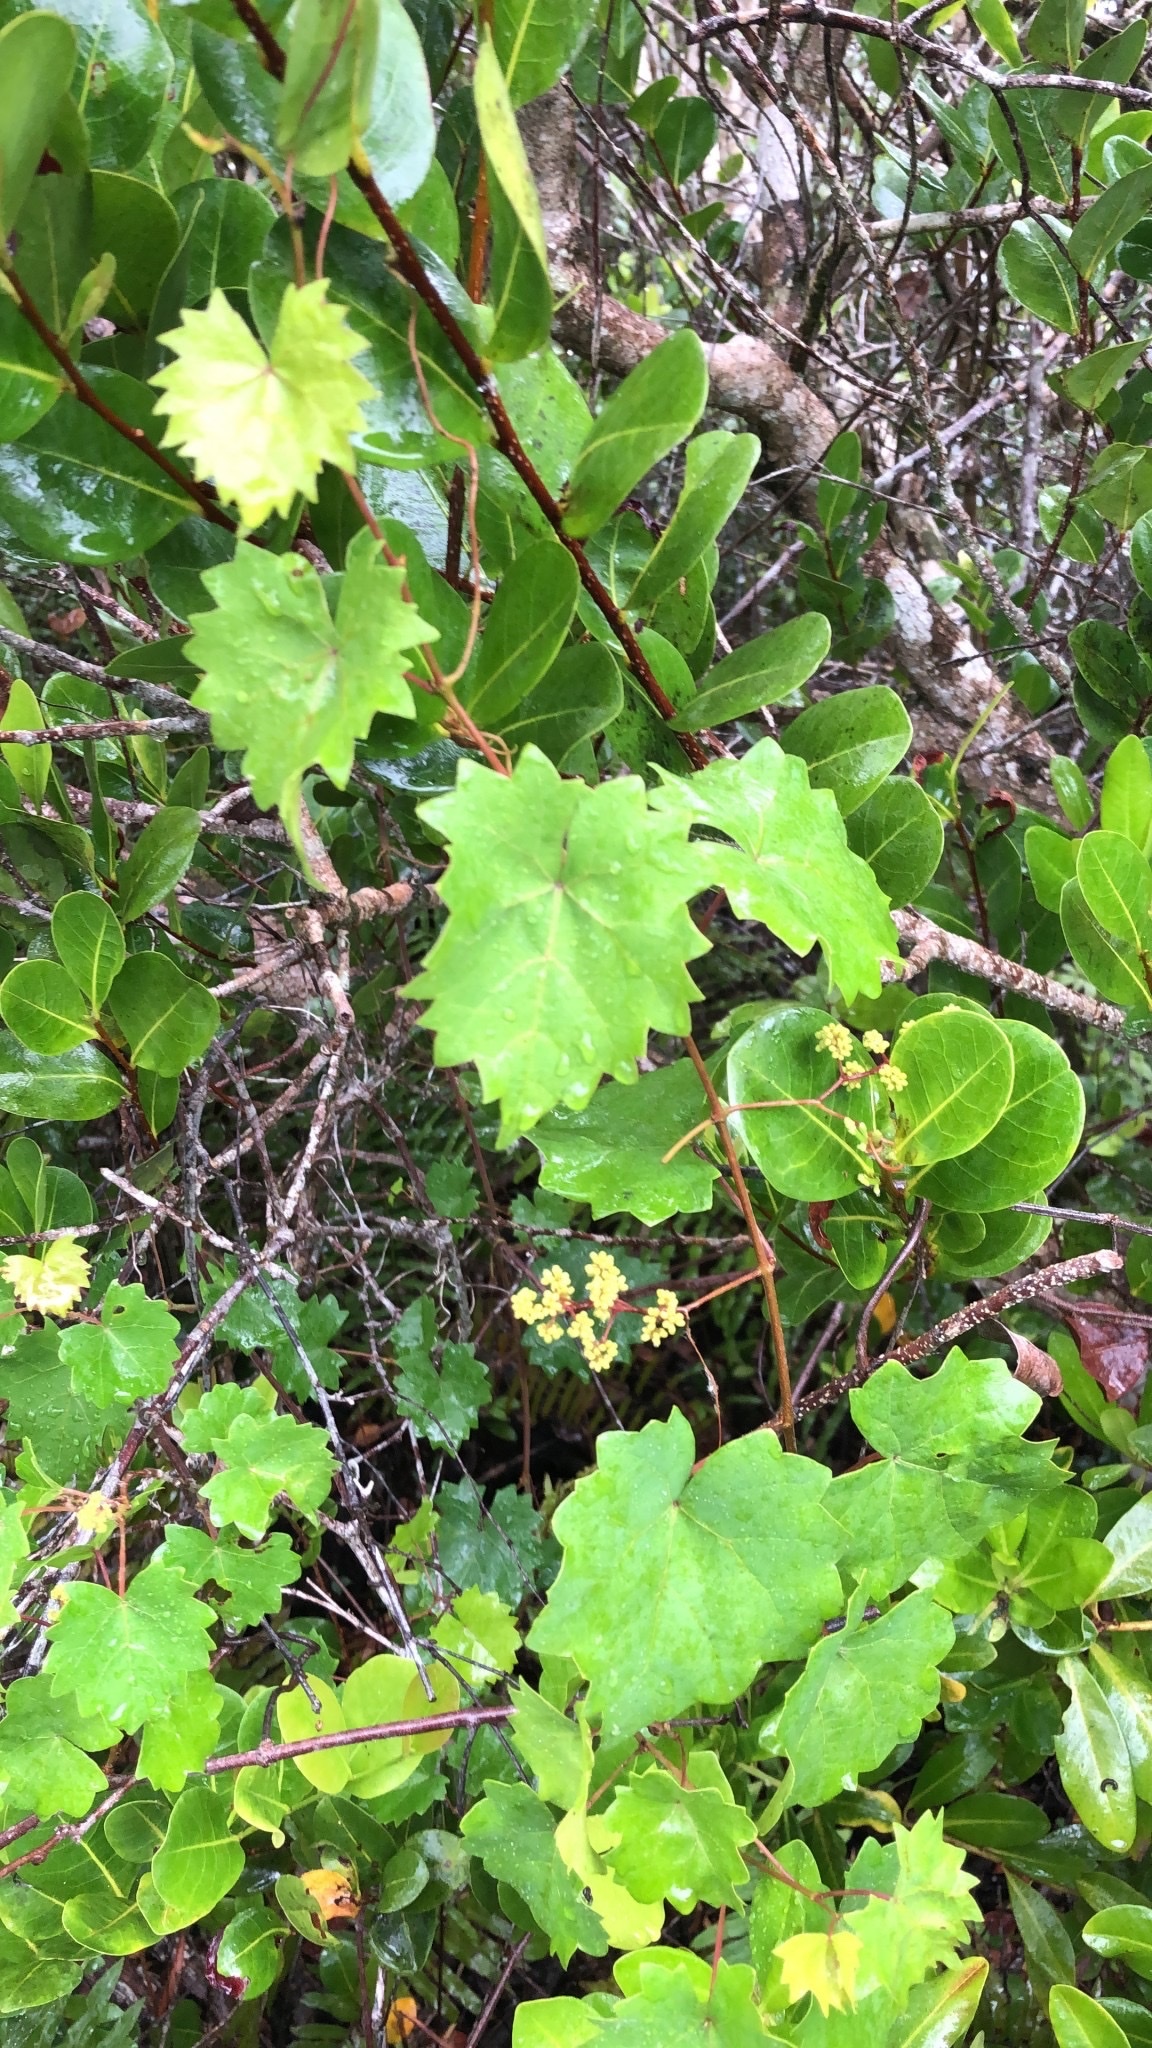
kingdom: Plantae
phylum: Tracheophyta
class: Magnoliopsida
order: Vitales
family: Vitaceae
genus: Vitis
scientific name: Vitis rotundifolia
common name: Muscadine grape
